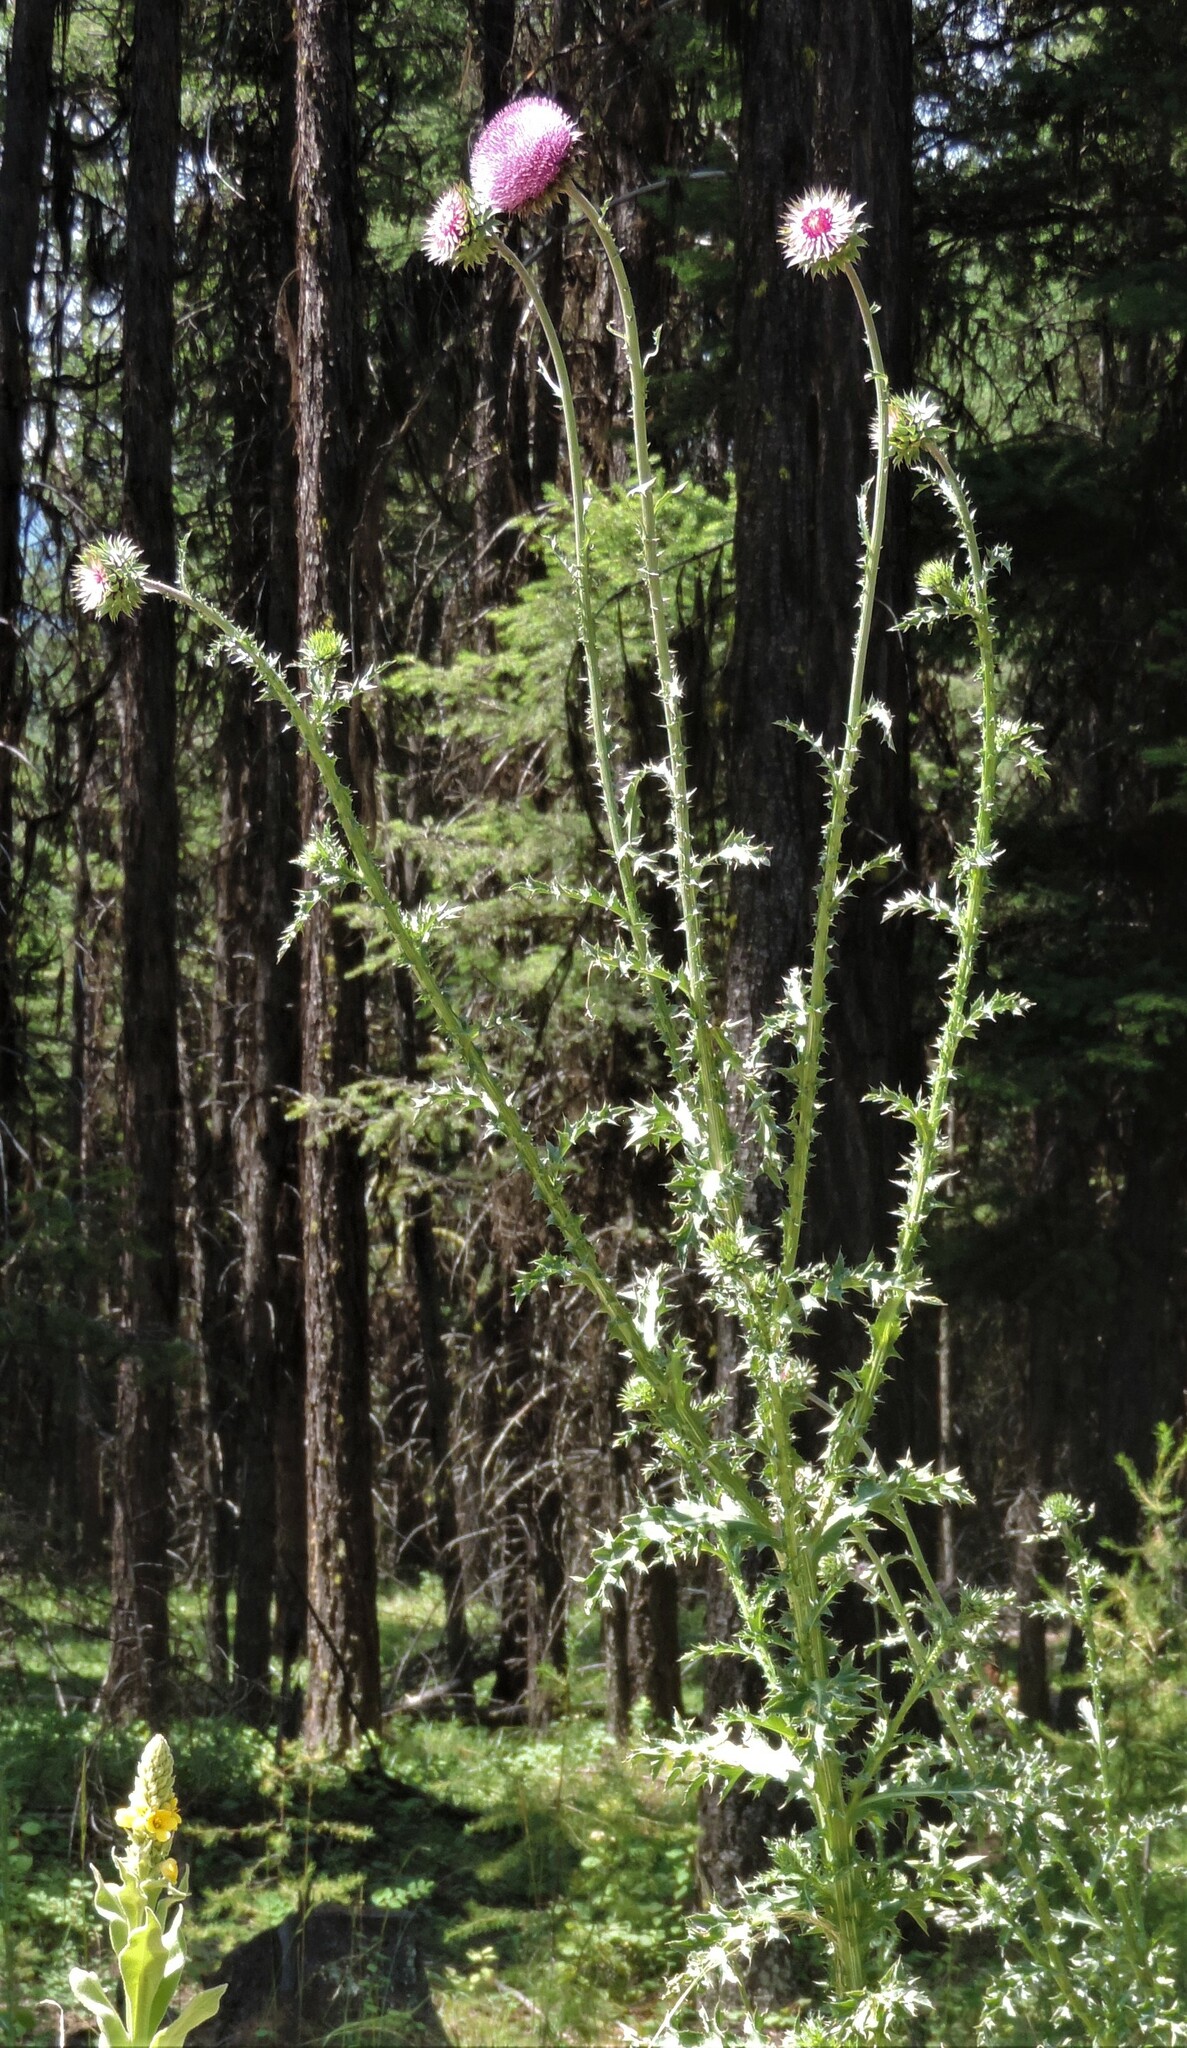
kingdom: Plantae
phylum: Tracheophyta
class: Magnoliopsida
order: Asterales
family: Asteraceae
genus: Carduus
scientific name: Carduus nutans
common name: Musk thistle
